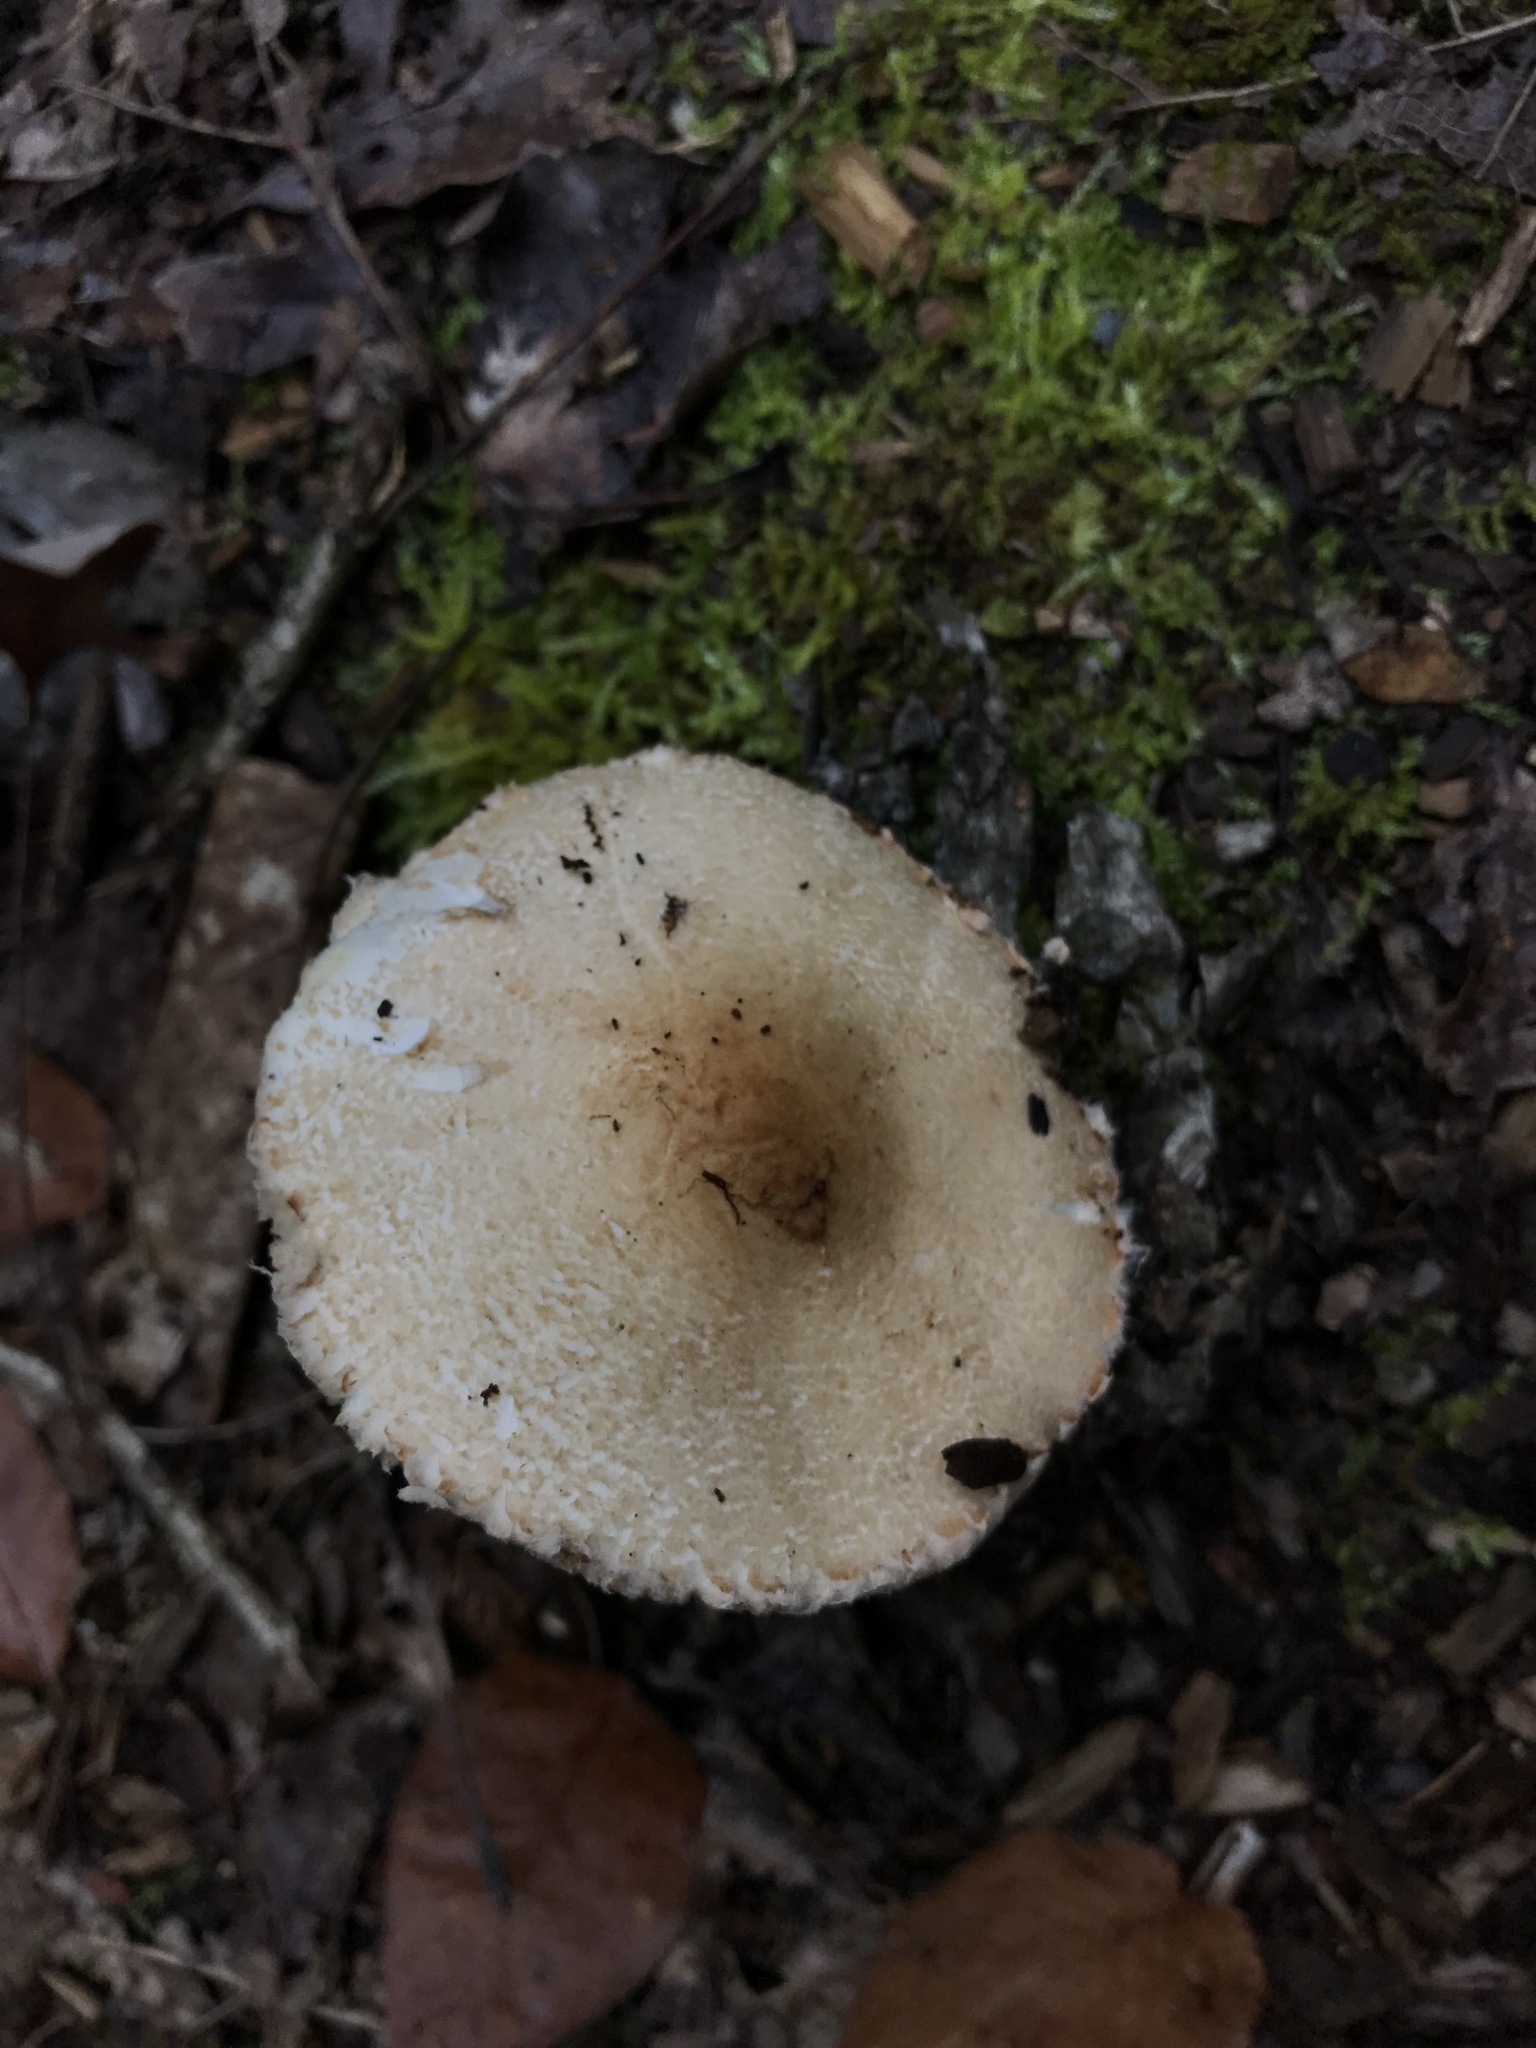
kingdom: Fungi
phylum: Basidiomycota
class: Agaricomycetes
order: Agaricales
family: Agaricaceae
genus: Lepiota
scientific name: Lepiota clypeolaria
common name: Shield dapperling
